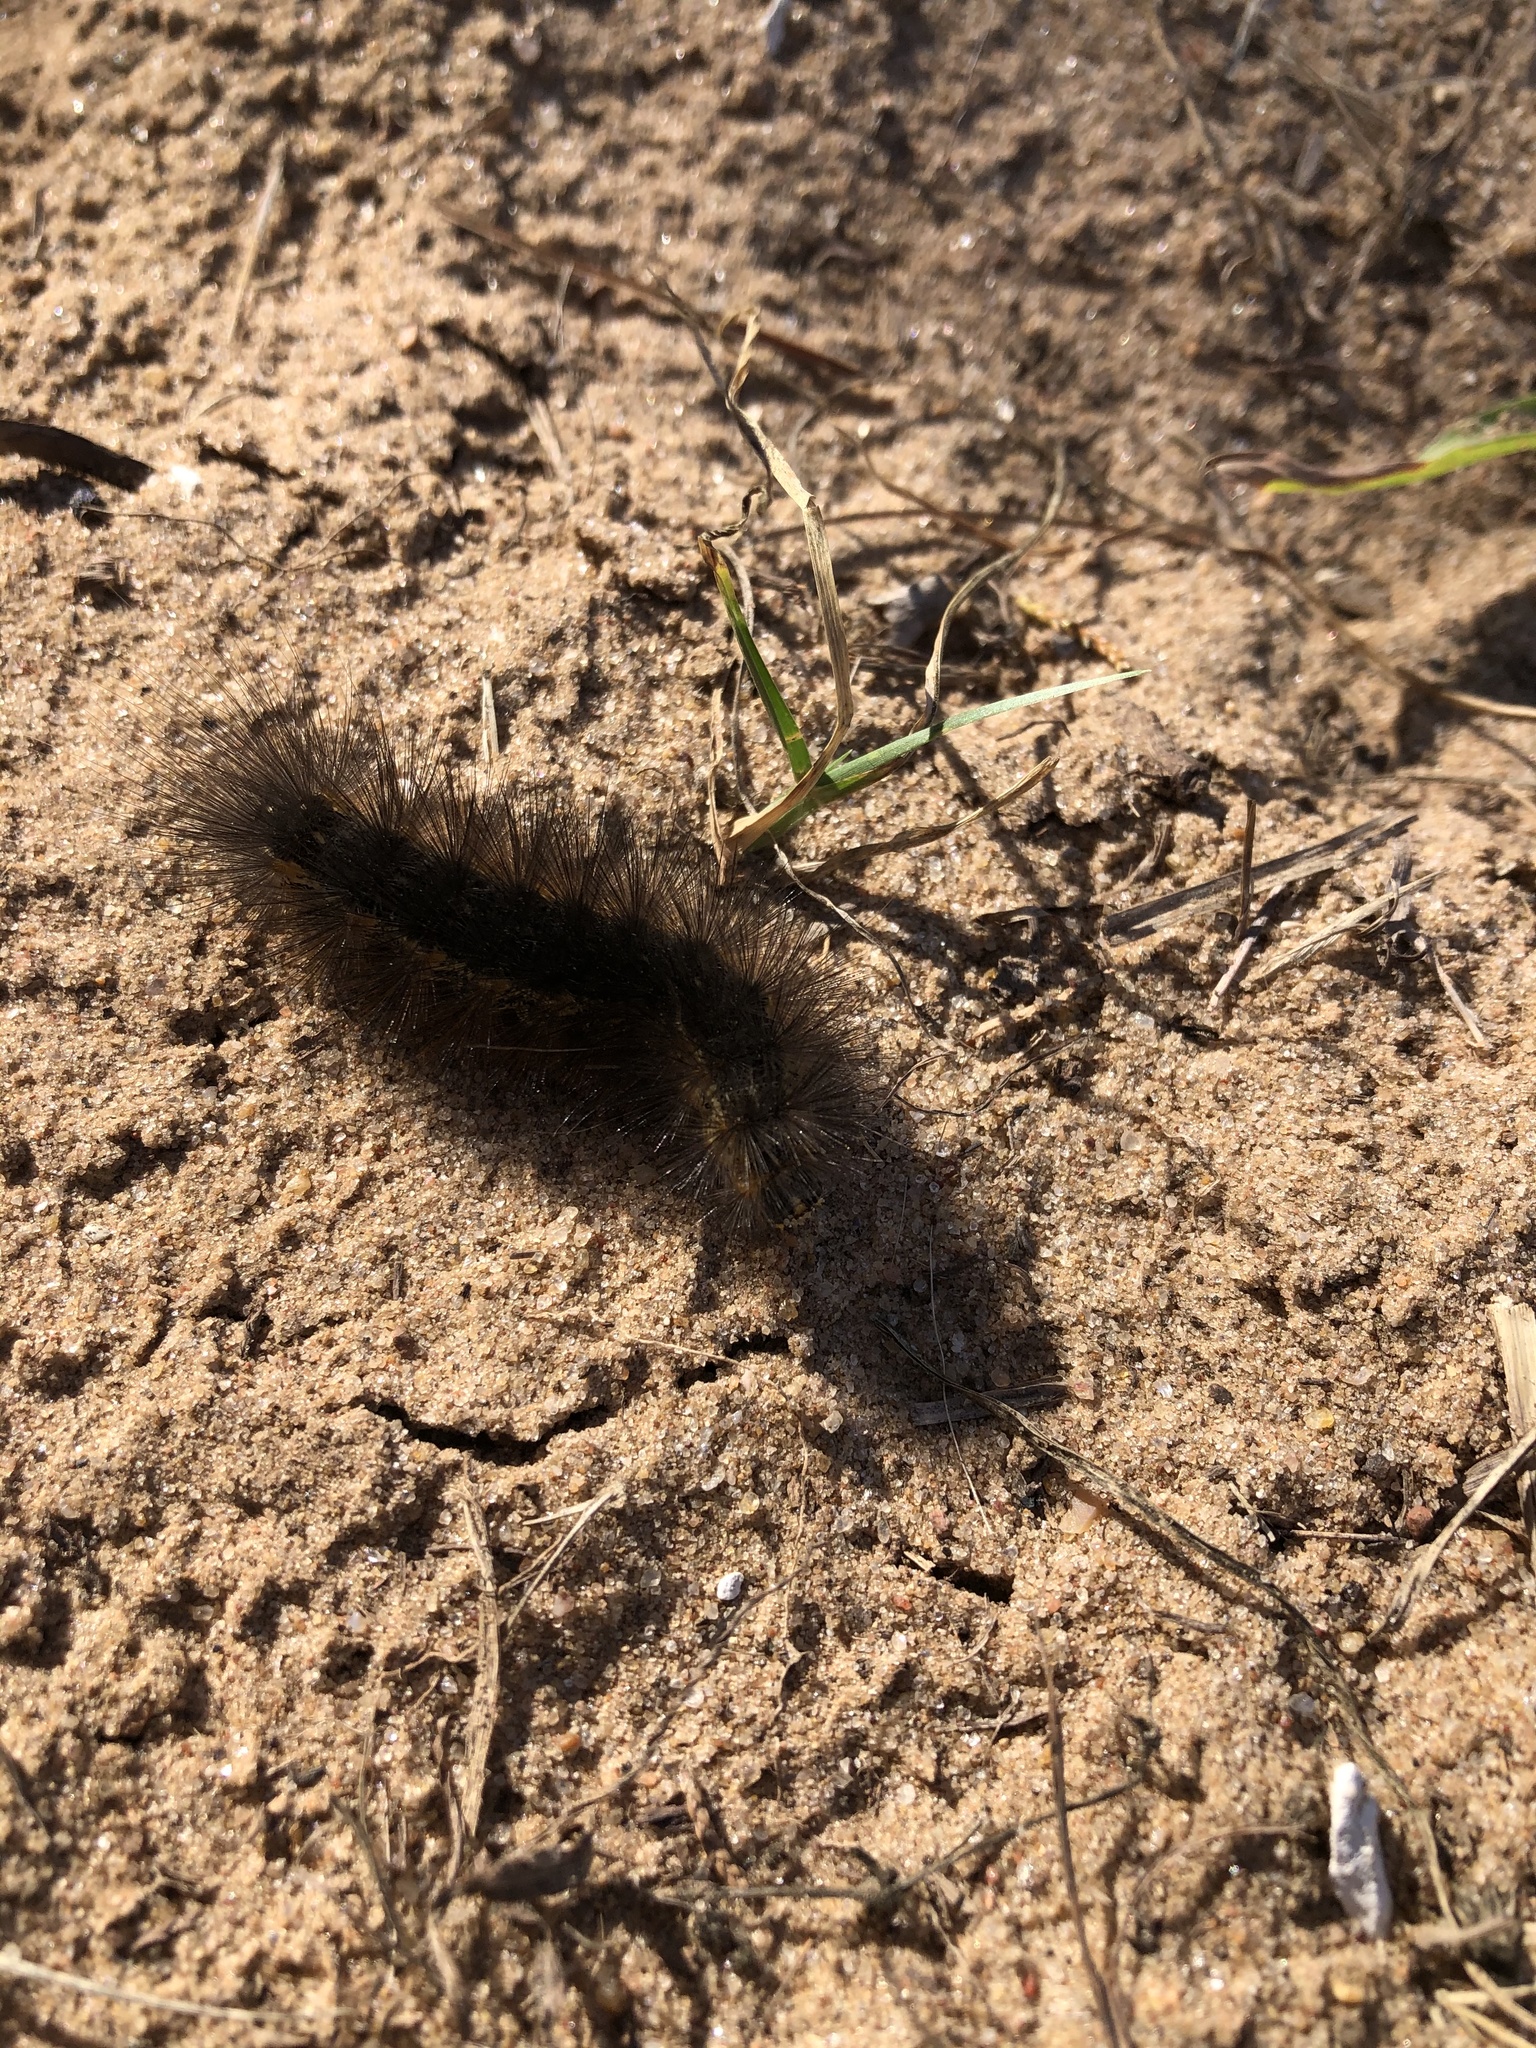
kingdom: Animalia
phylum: Arthropoda
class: Insecta
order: Lepidoptera
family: Erebidae
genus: Estigmene
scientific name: Estigmene acrea
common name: Salt marsh moth
